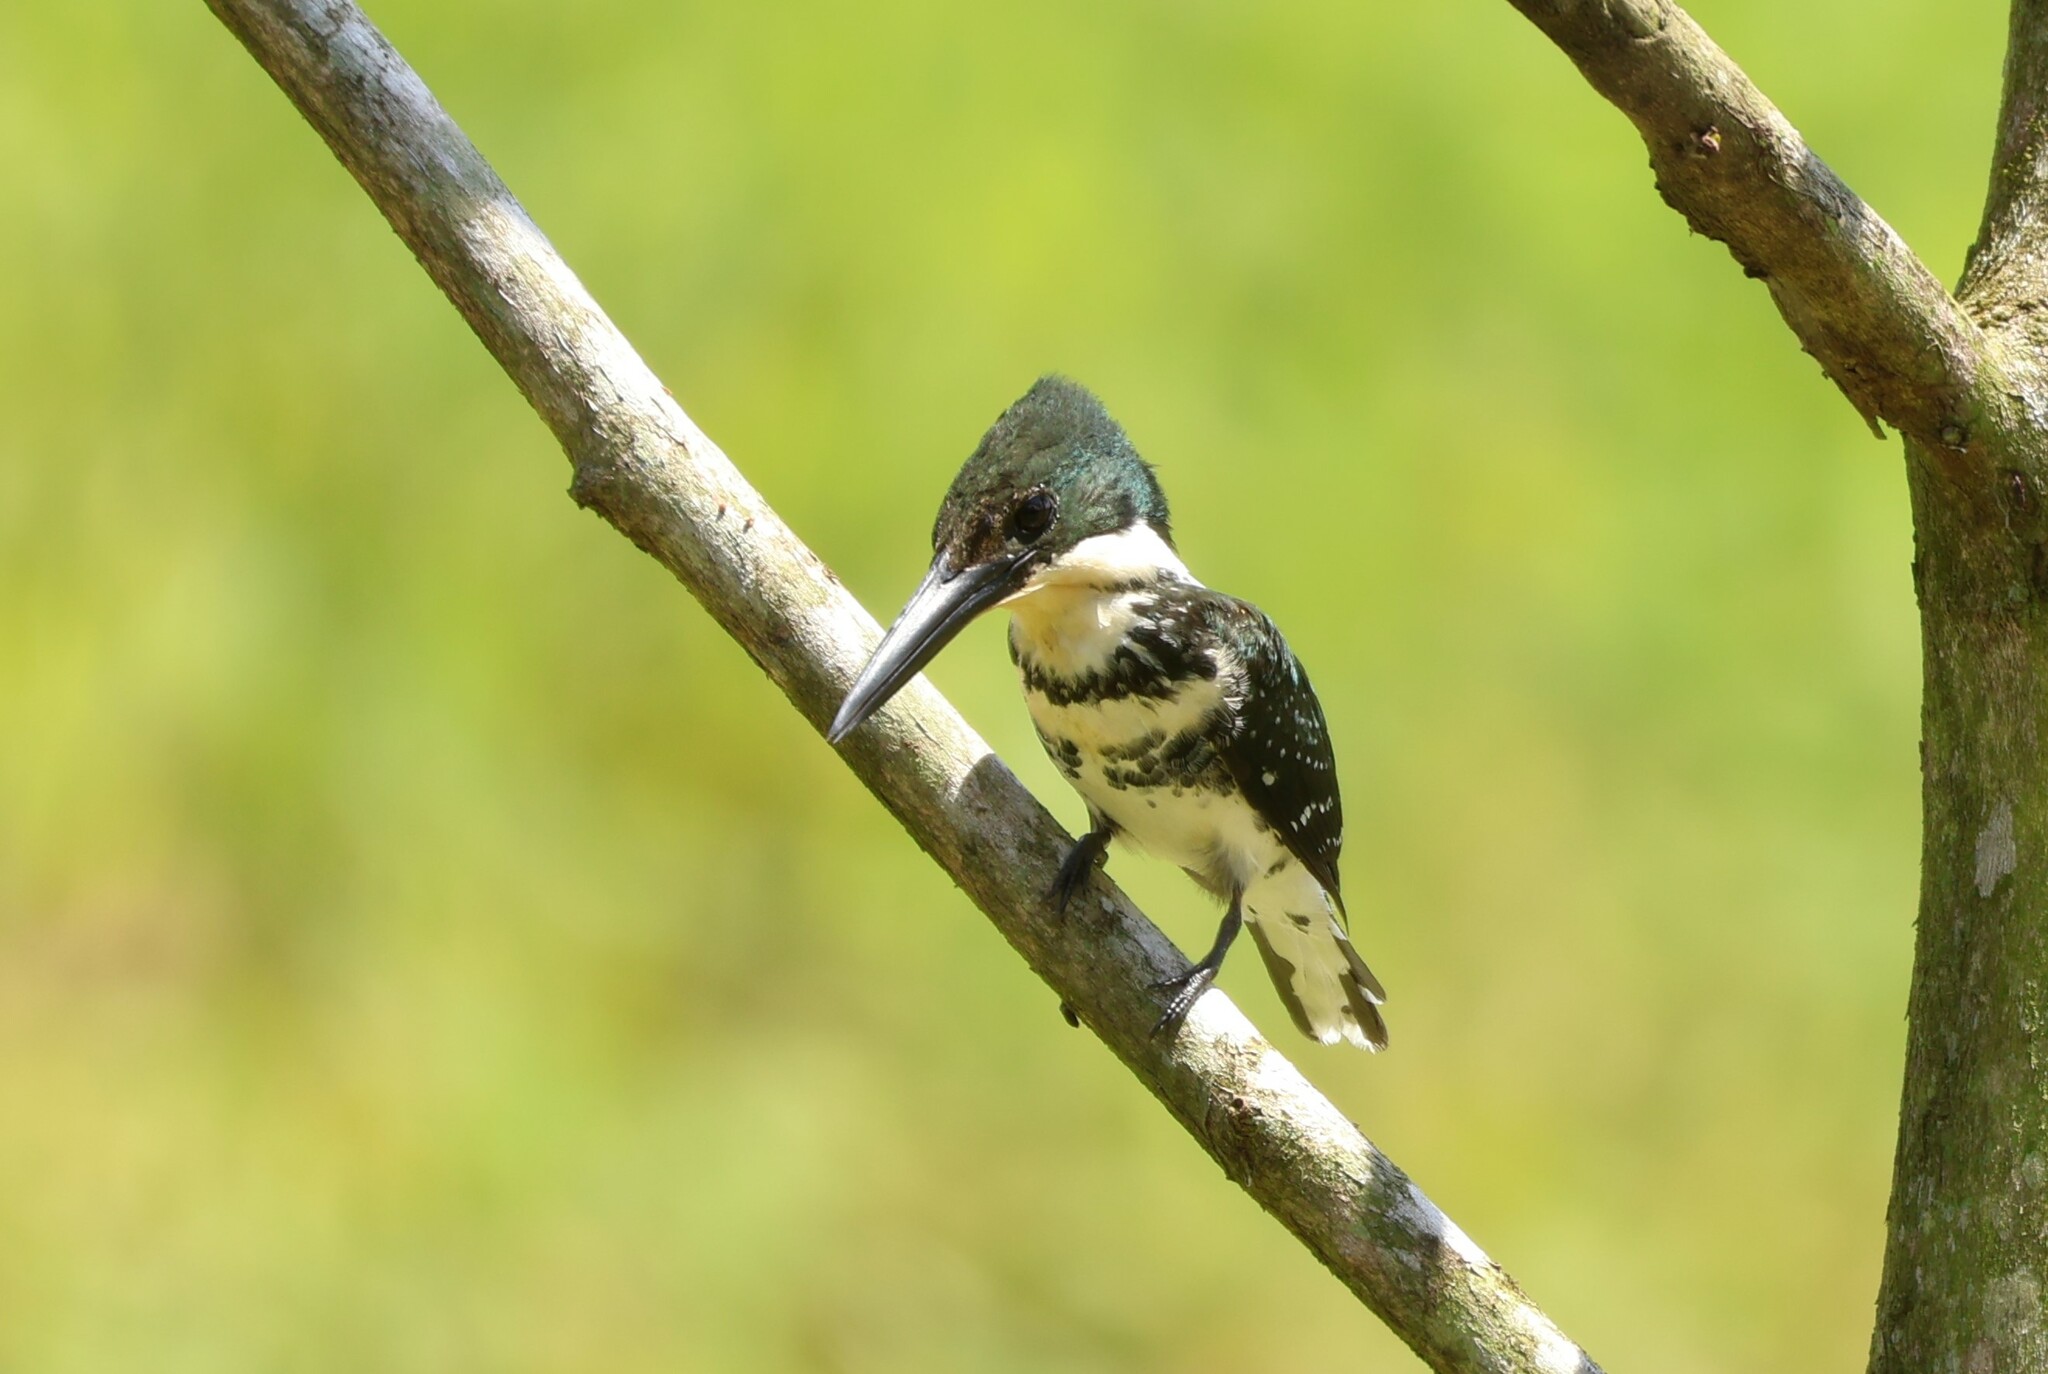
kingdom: Animalia
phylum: Chordata
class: Aves
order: Coraciiformes
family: Alcedinidae
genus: Chloroceryle
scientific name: Chloroceryle americana
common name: Green kingfisher
